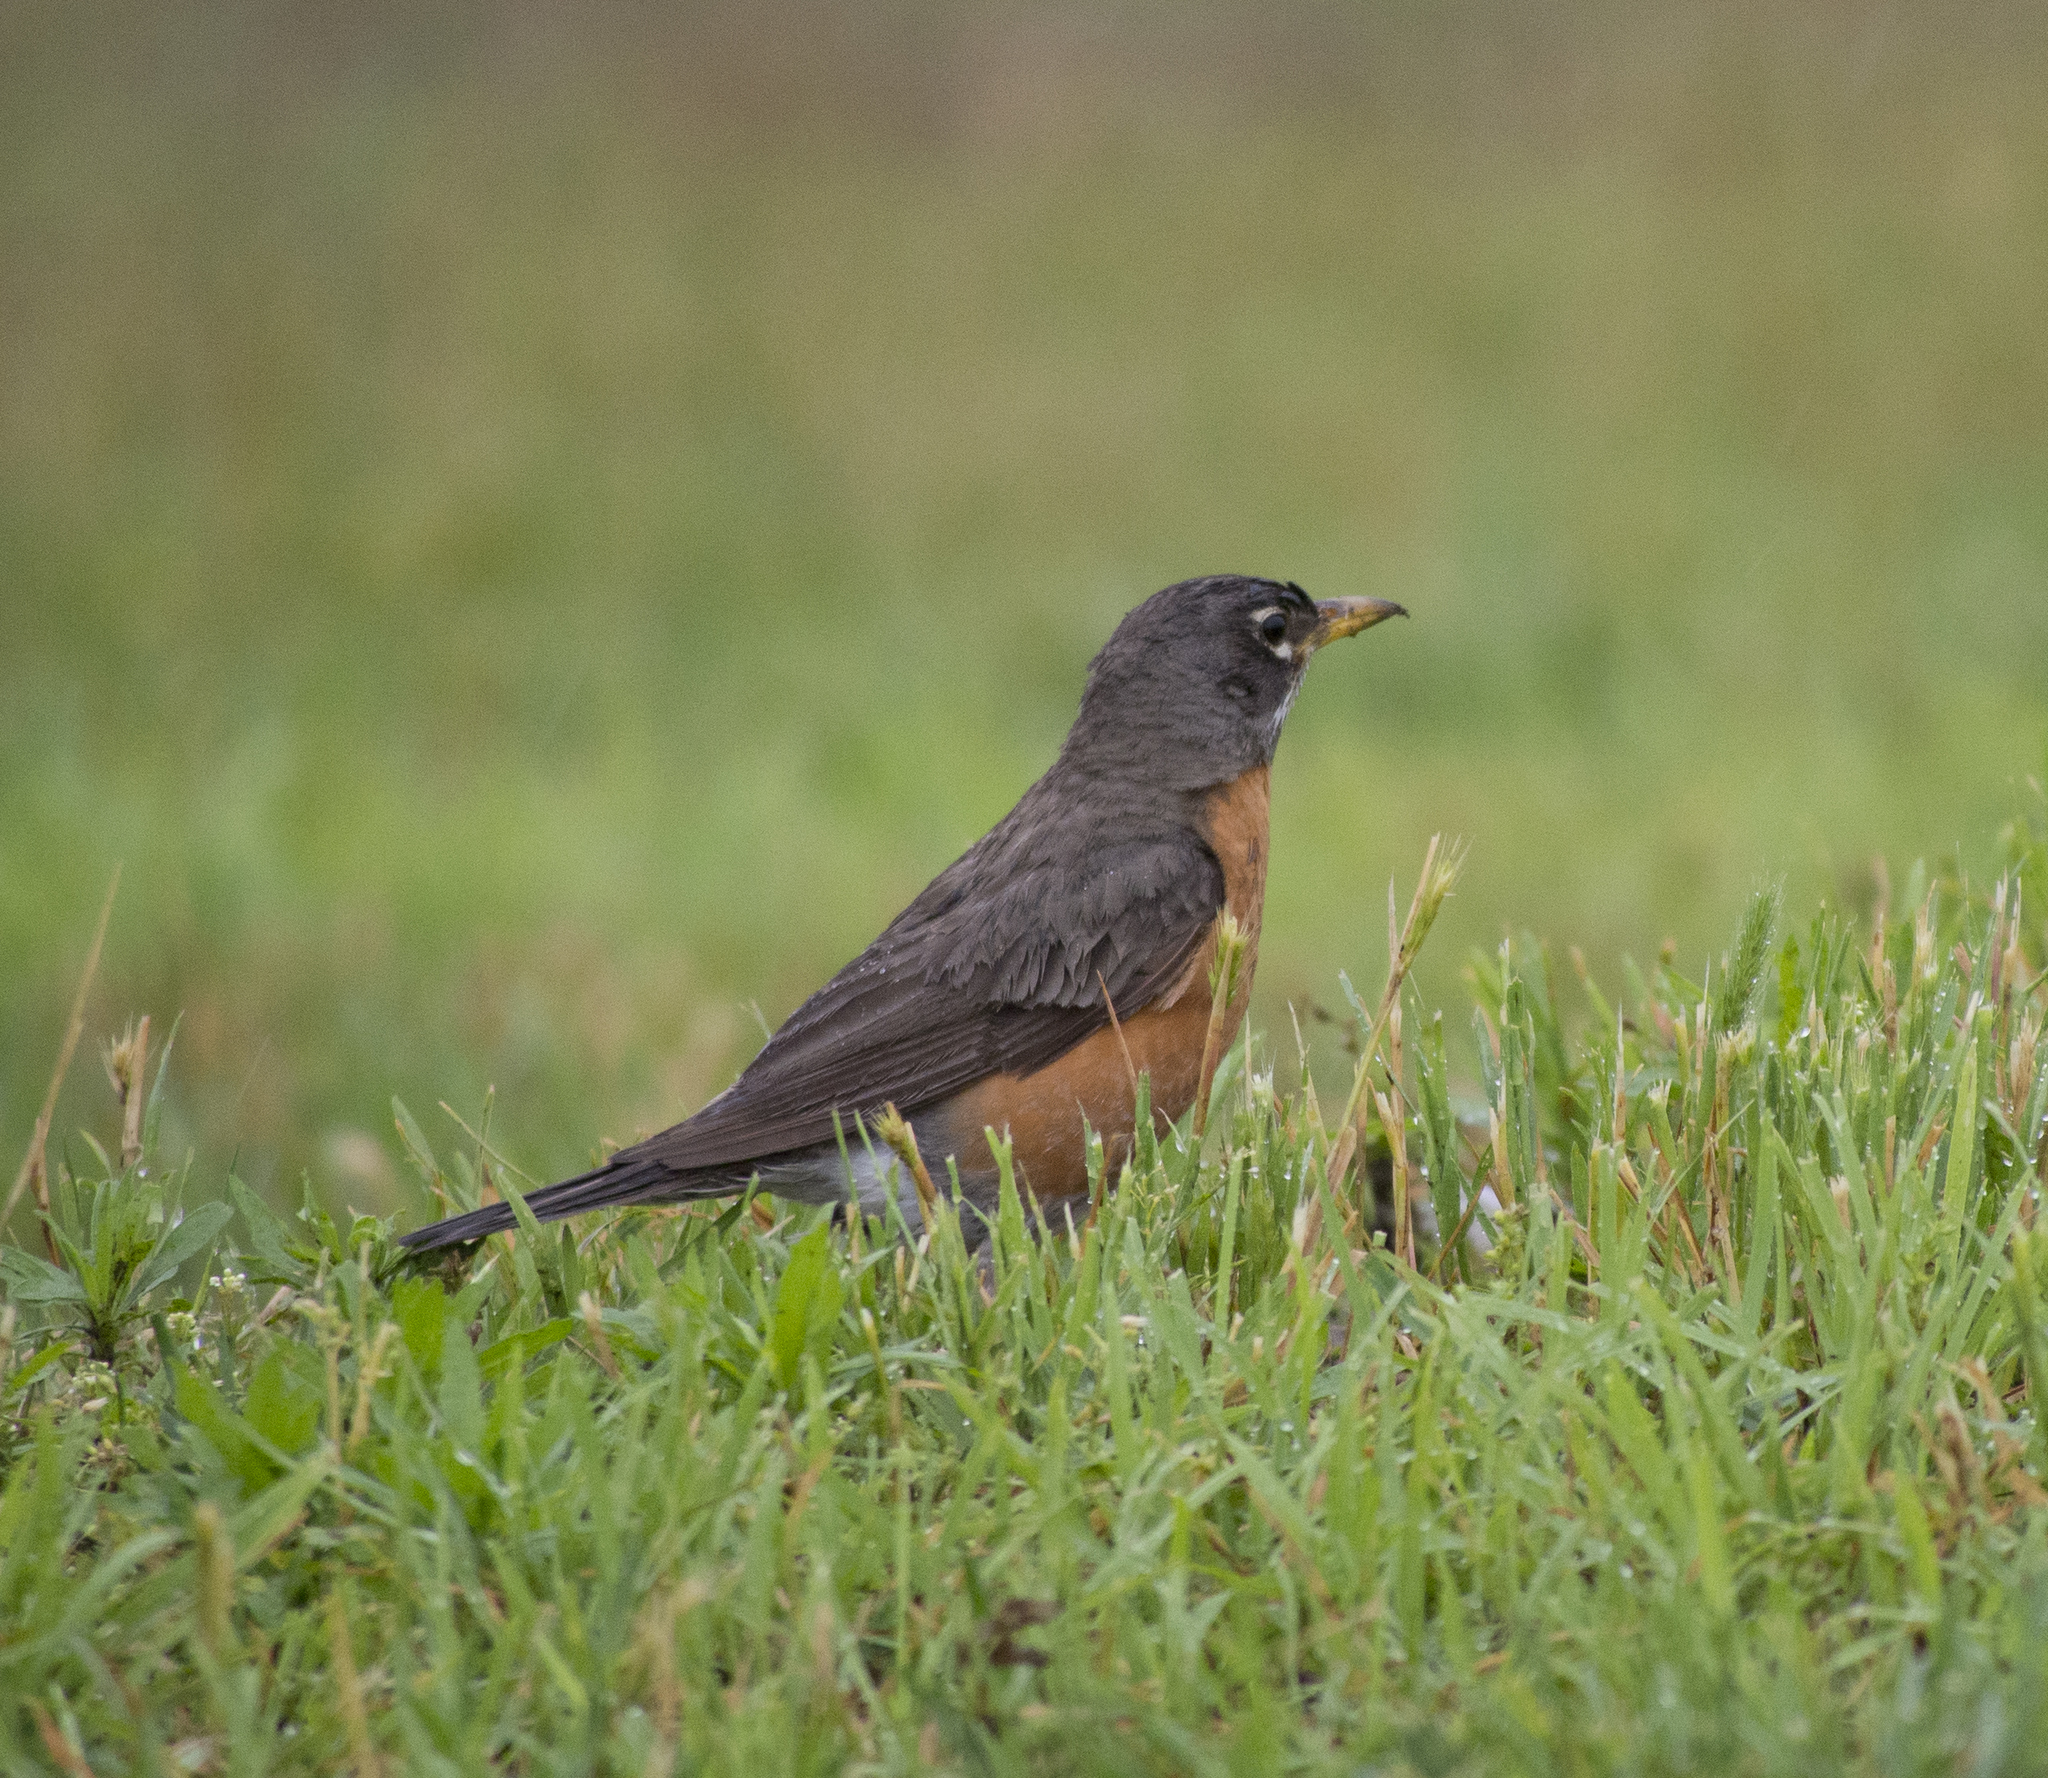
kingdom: Animalia
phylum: Chordata
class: Aves
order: Passeriformes
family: Turdidae
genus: Turdus
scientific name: Turdus migratorius
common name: American robin
